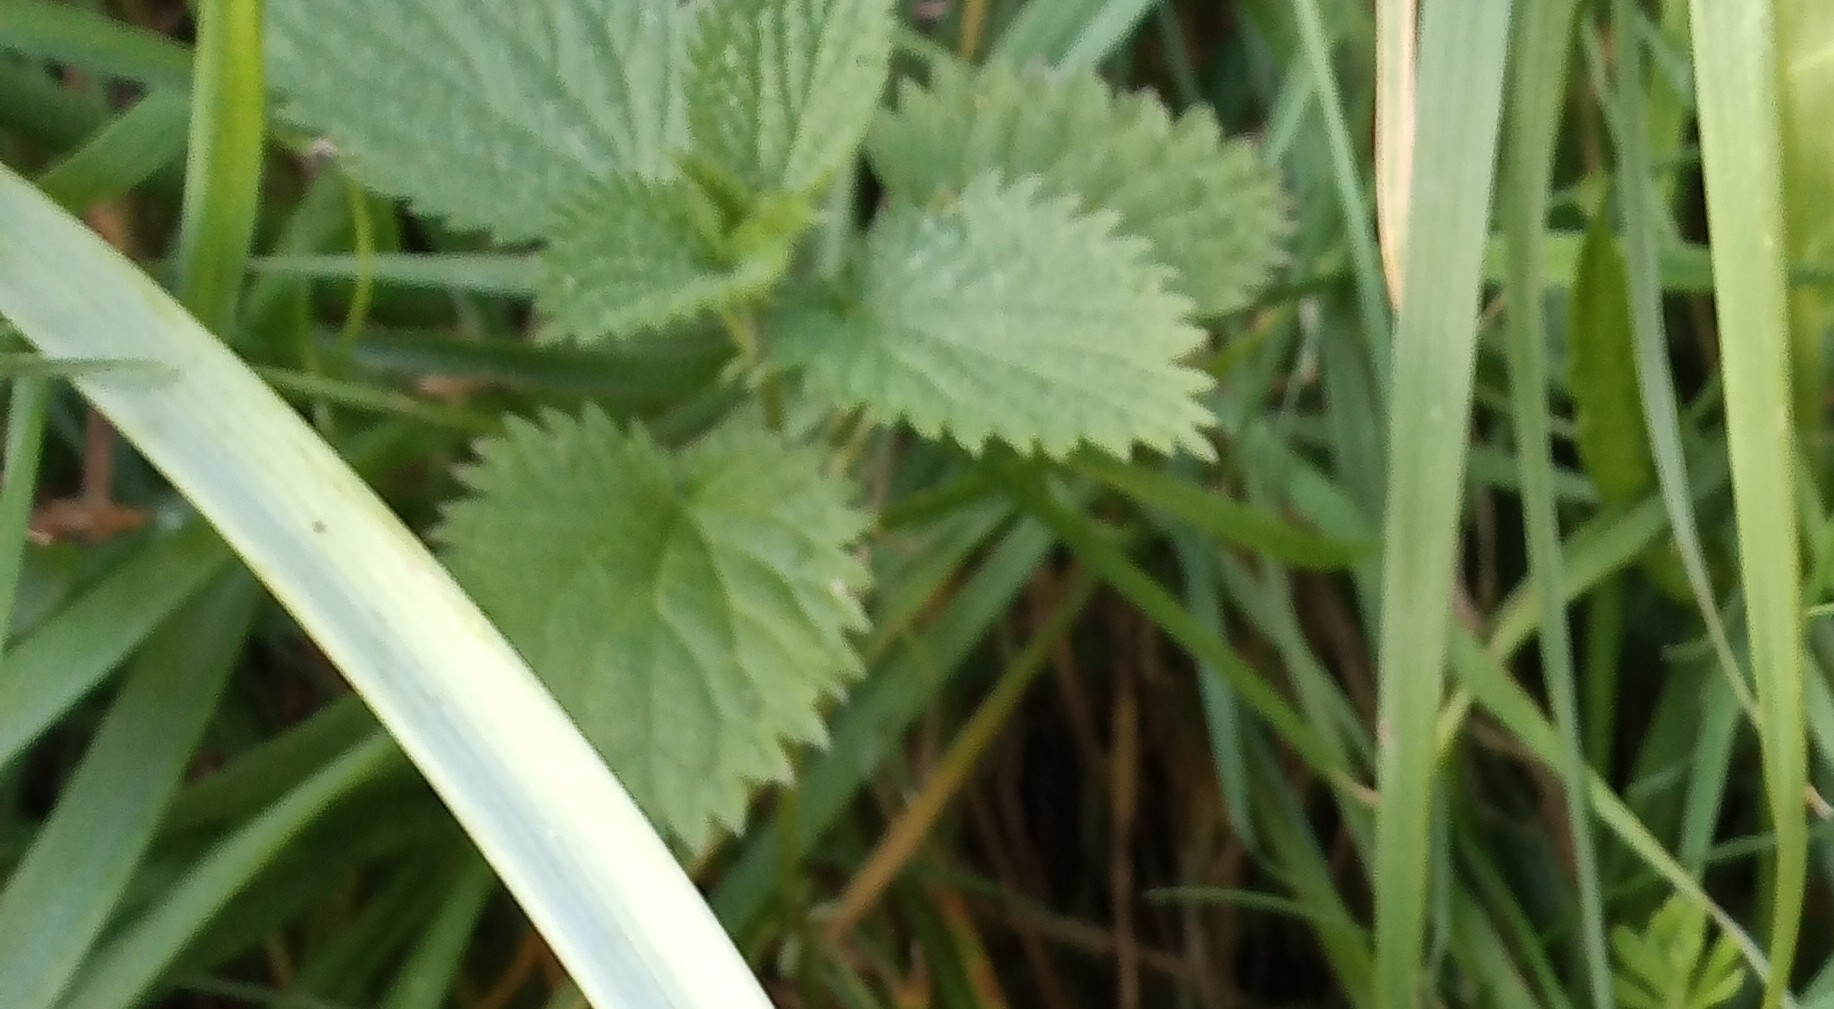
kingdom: Plantae
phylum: Tracheophyta
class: Magnoliopsida
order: Rosales
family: Urticaceae
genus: Urtica
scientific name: Urtica dioica
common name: Common nettle
